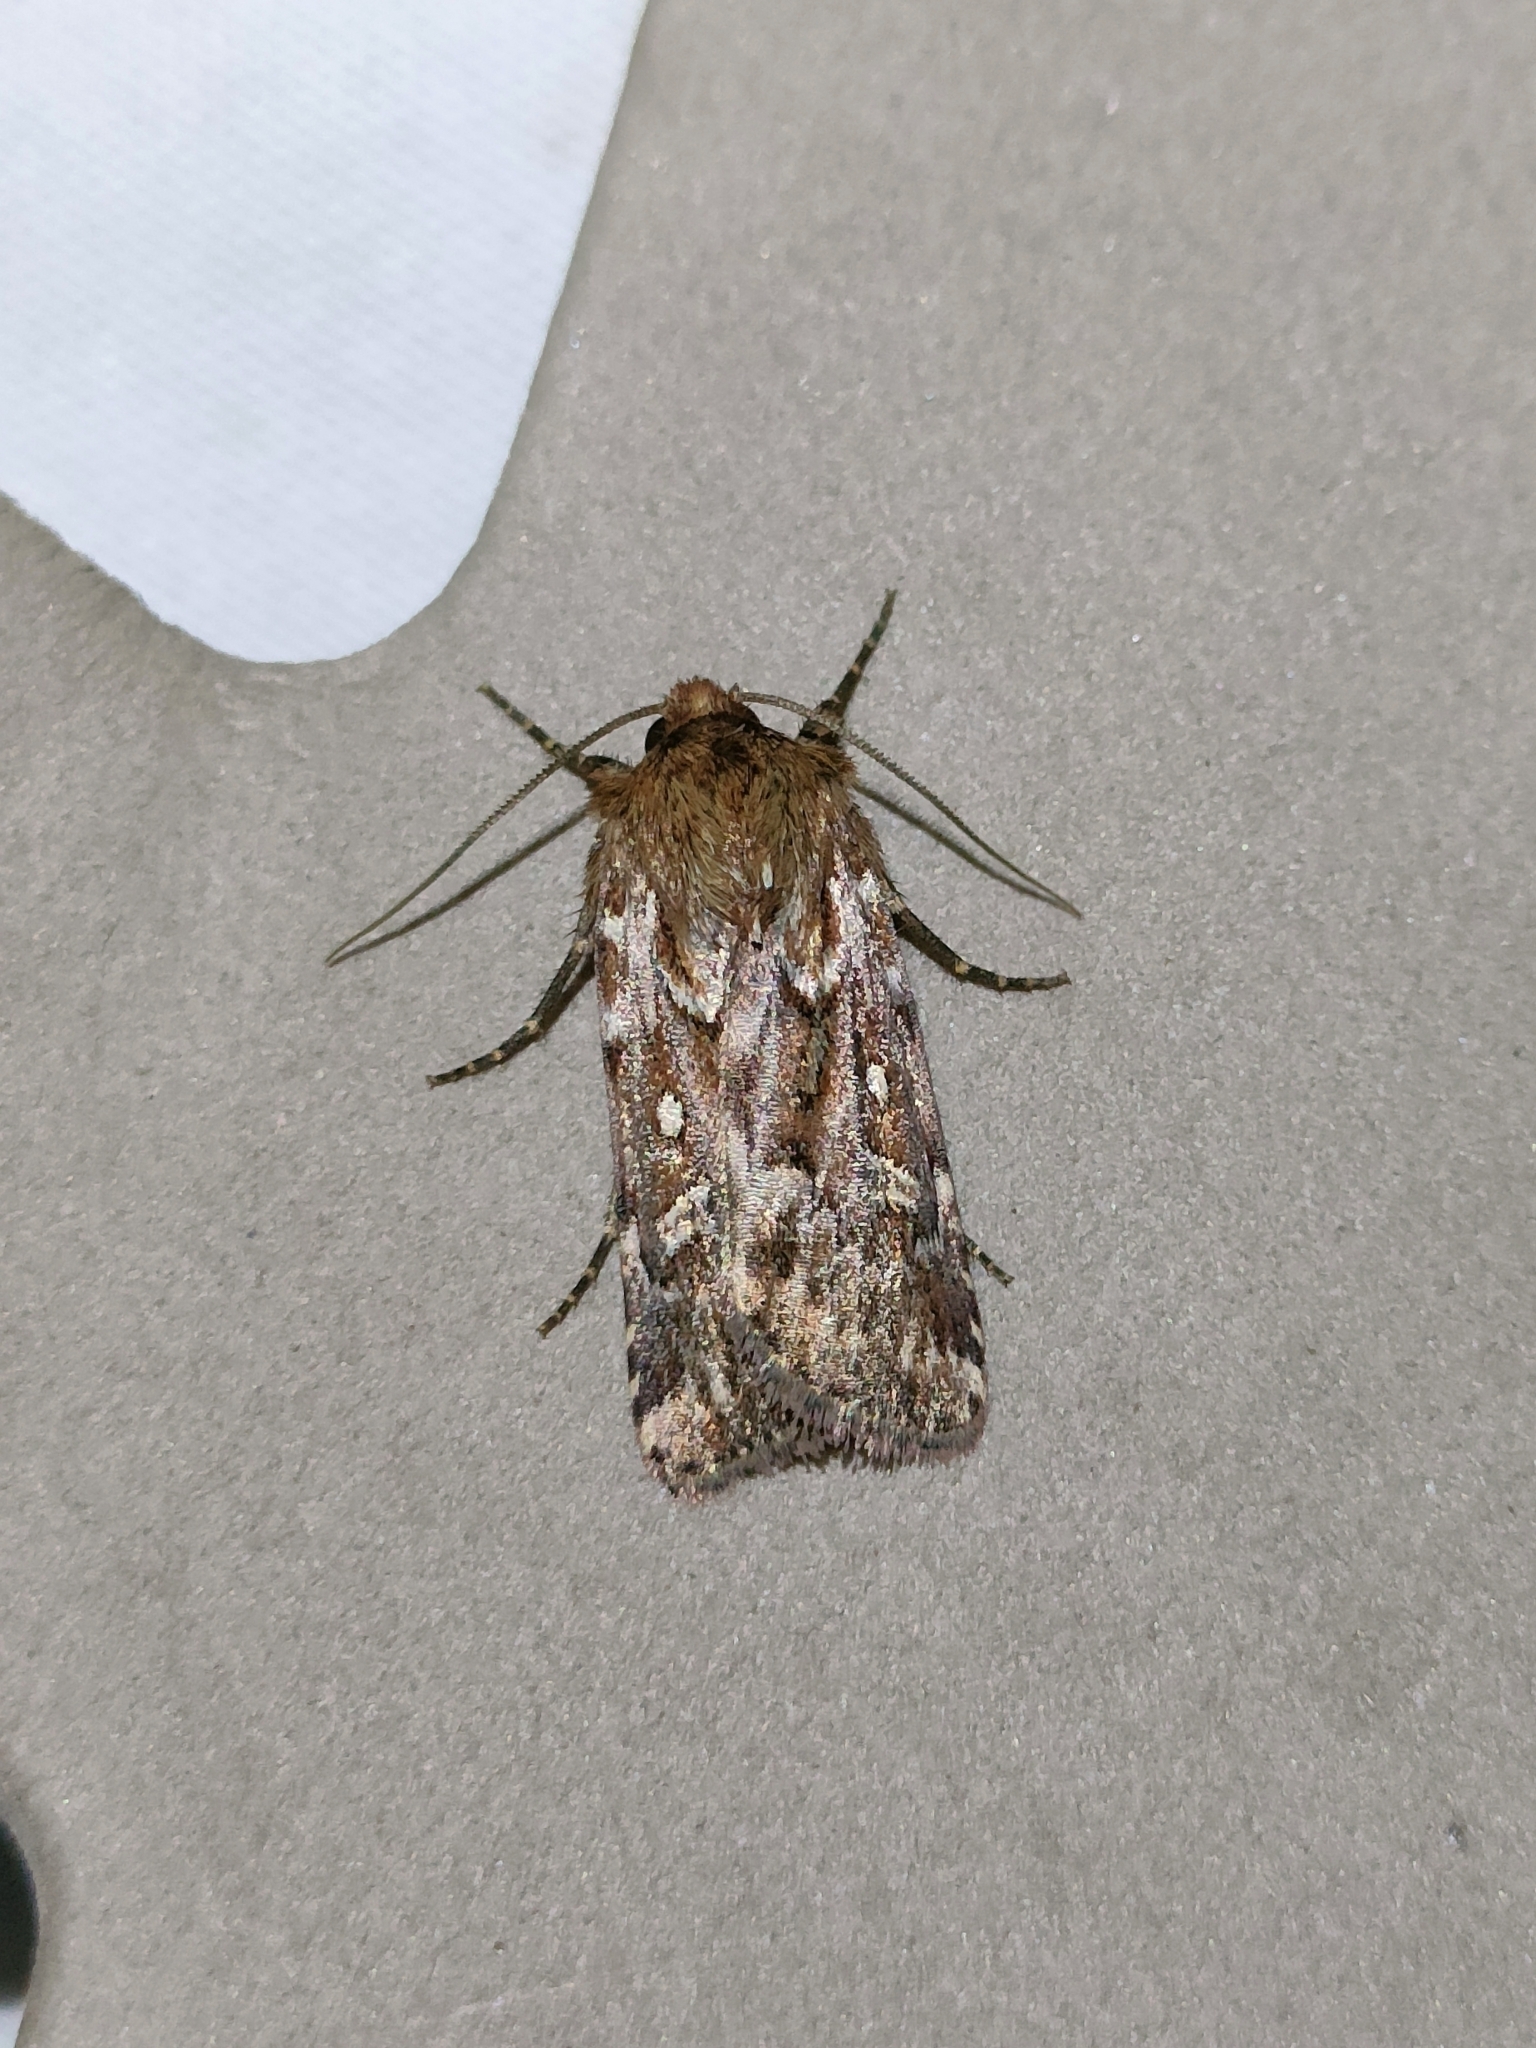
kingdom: Animalia
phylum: Arthropoda
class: Insecta
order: Lepidoptera
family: Noctuidae
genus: Lycophotia
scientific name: Lycophotia porphyrea
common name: True lover's knot
